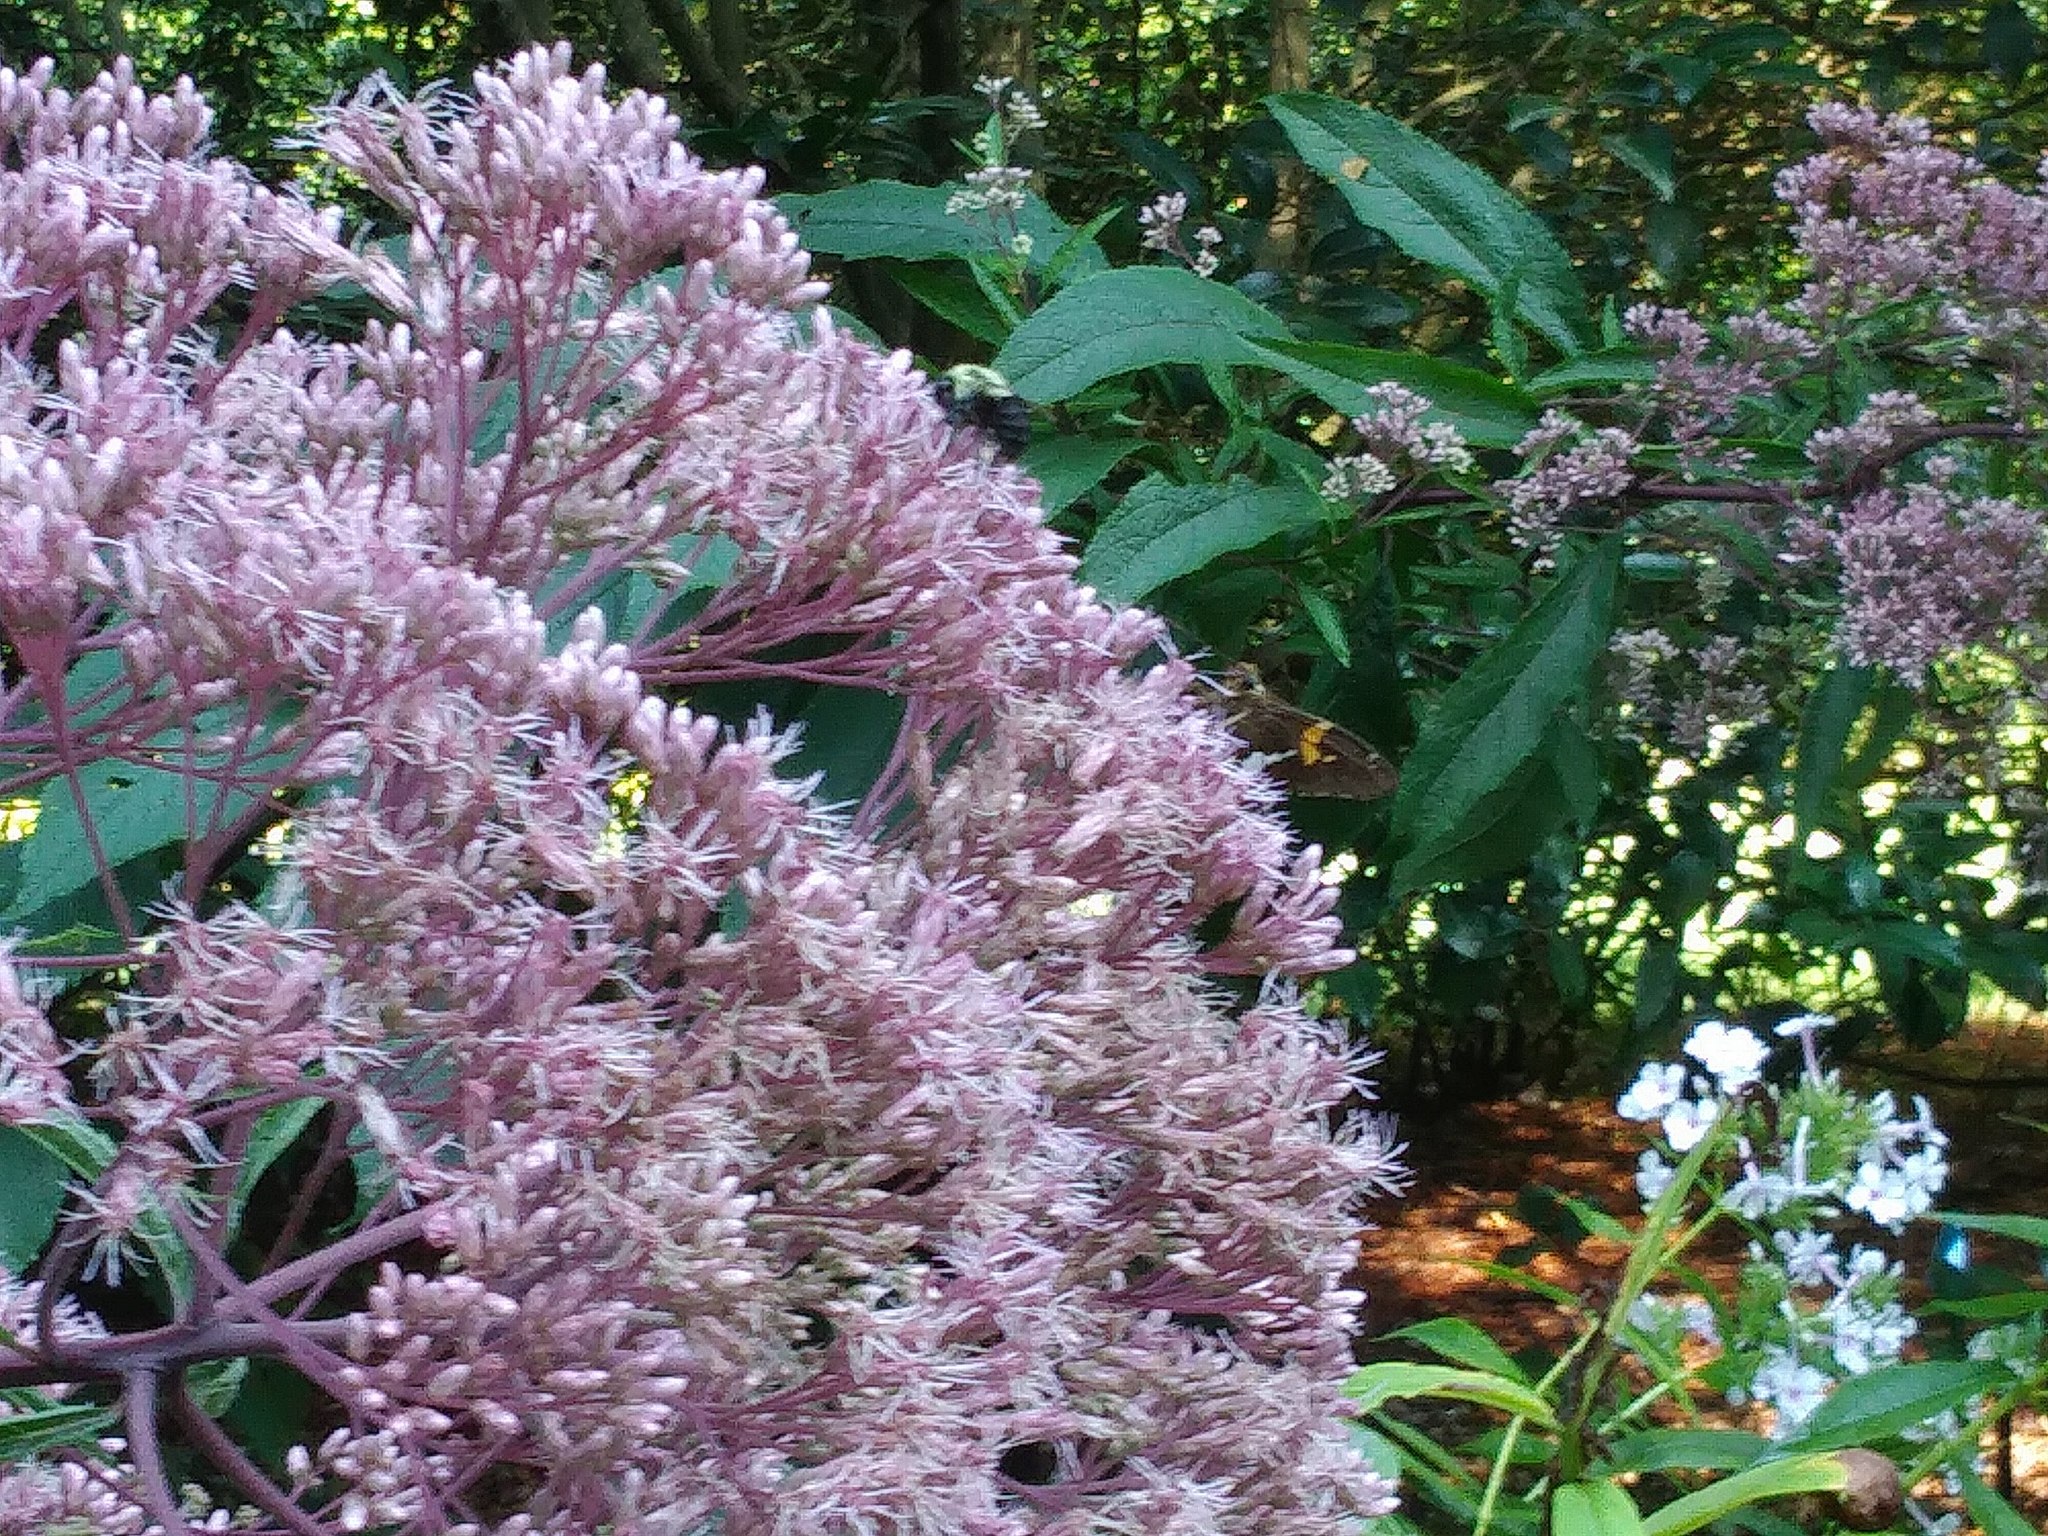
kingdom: Animalia
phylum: Arthropoda
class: Insecta
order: Hymenoptera
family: Apidae
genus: Bombus
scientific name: Bombus impatiens
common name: Common eastern bumble bee
